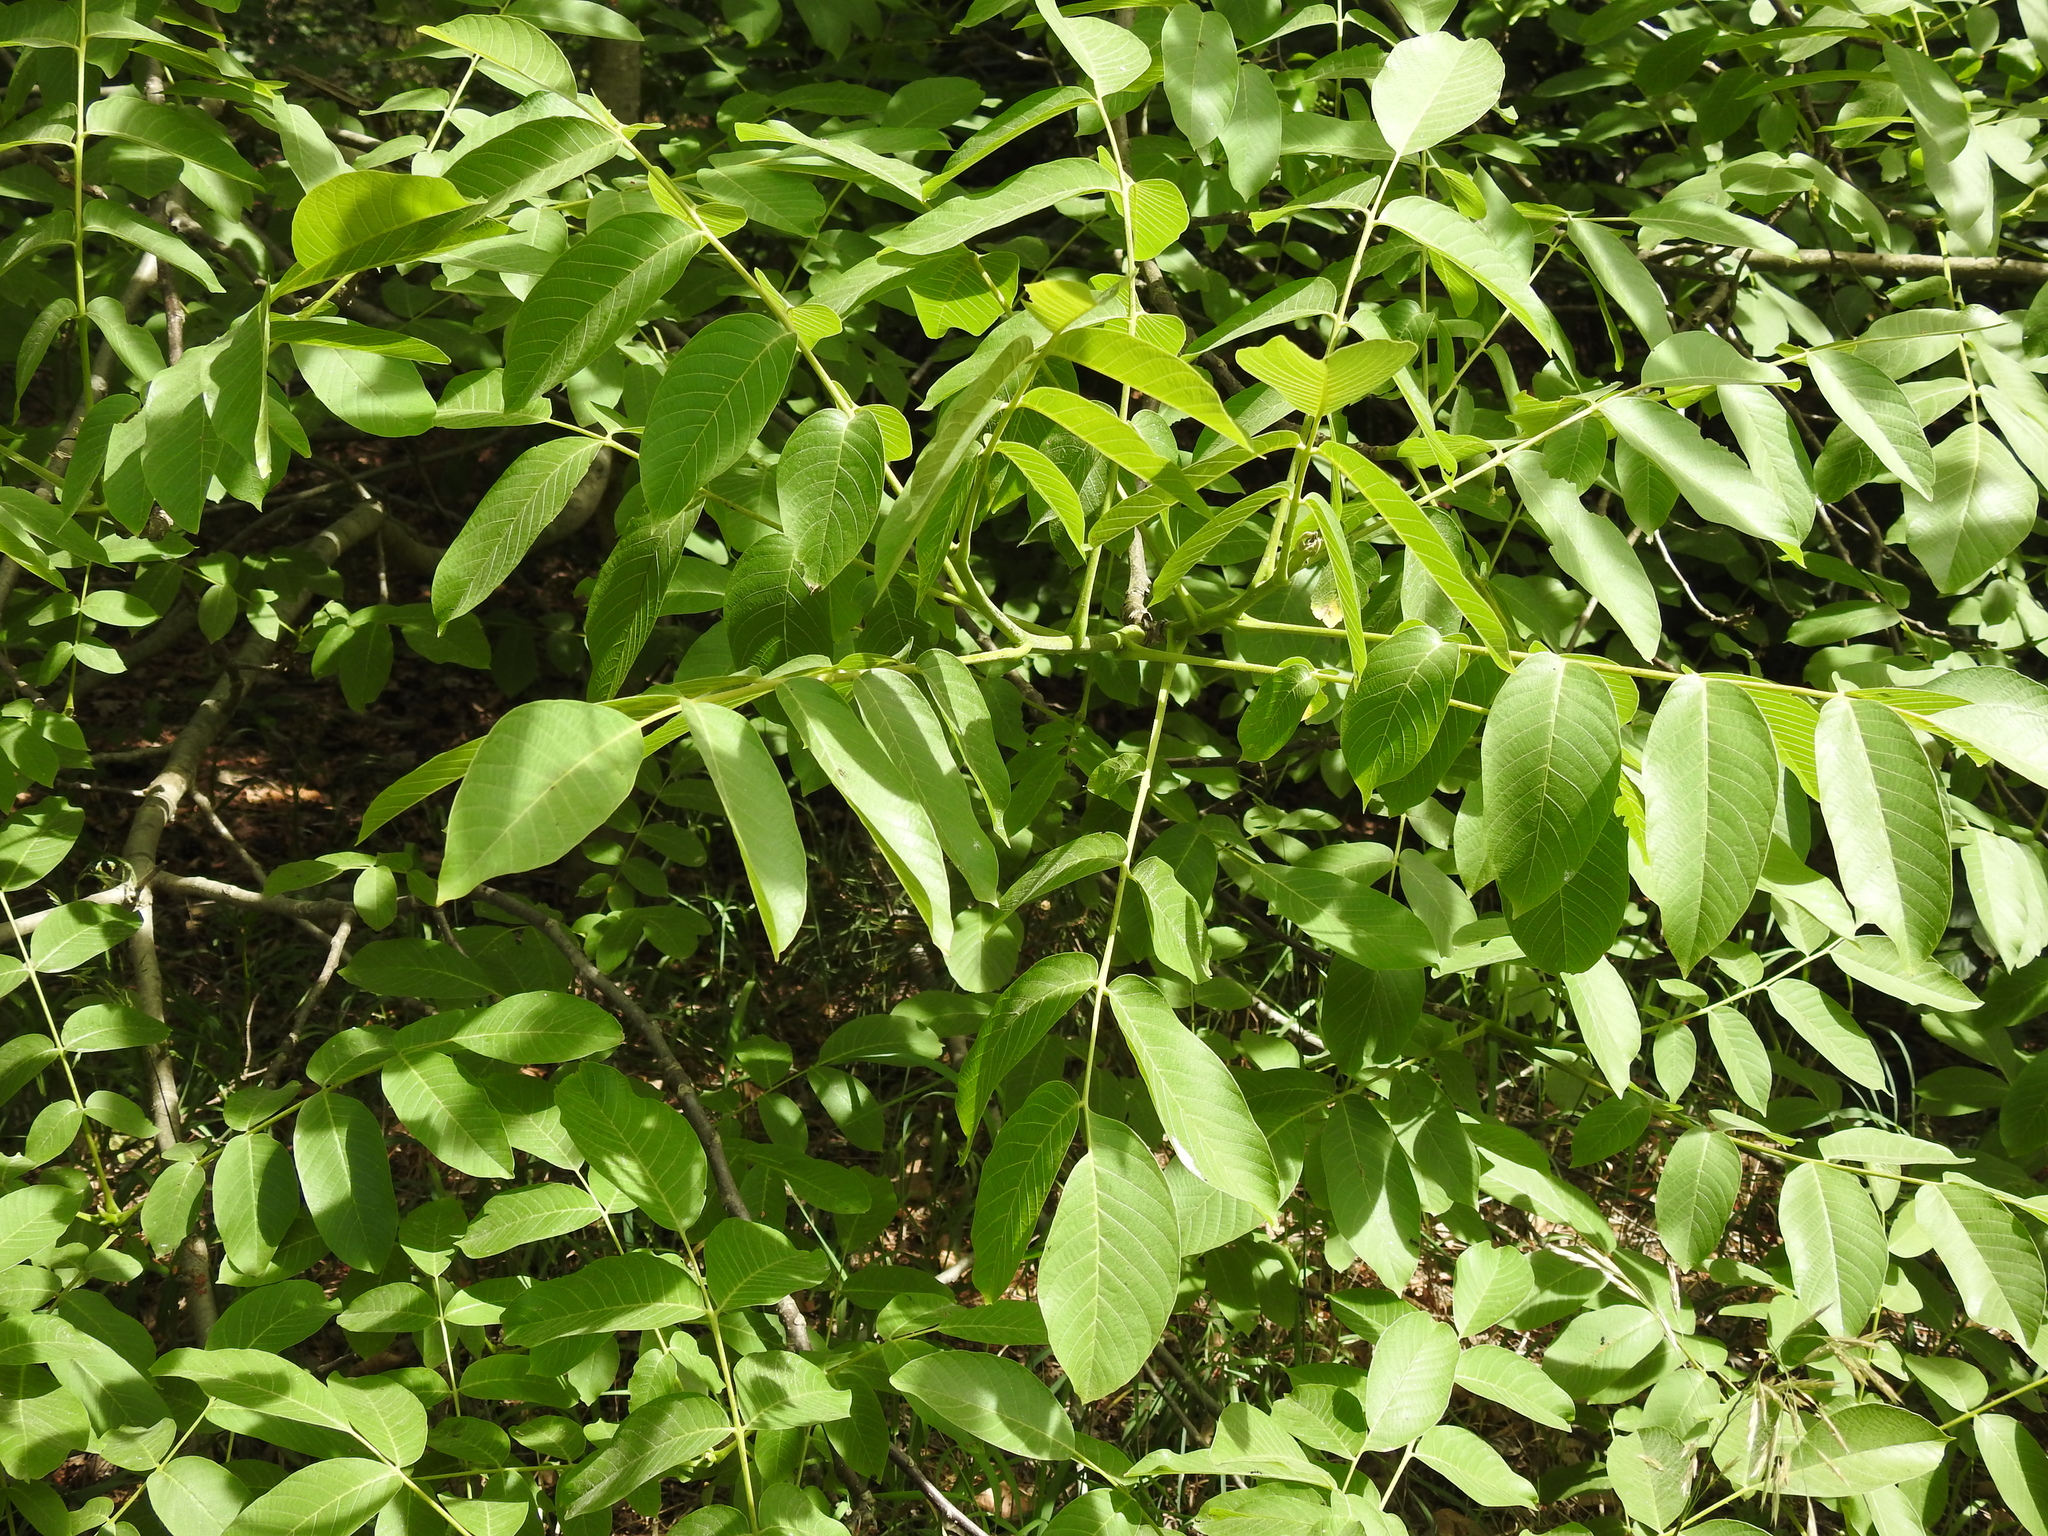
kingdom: Plantae
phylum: Tracheophyta
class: Magnoliopsida
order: Fagales
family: Juglandaceae
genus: Juglans
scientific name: Juglans regia
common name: Walnut
